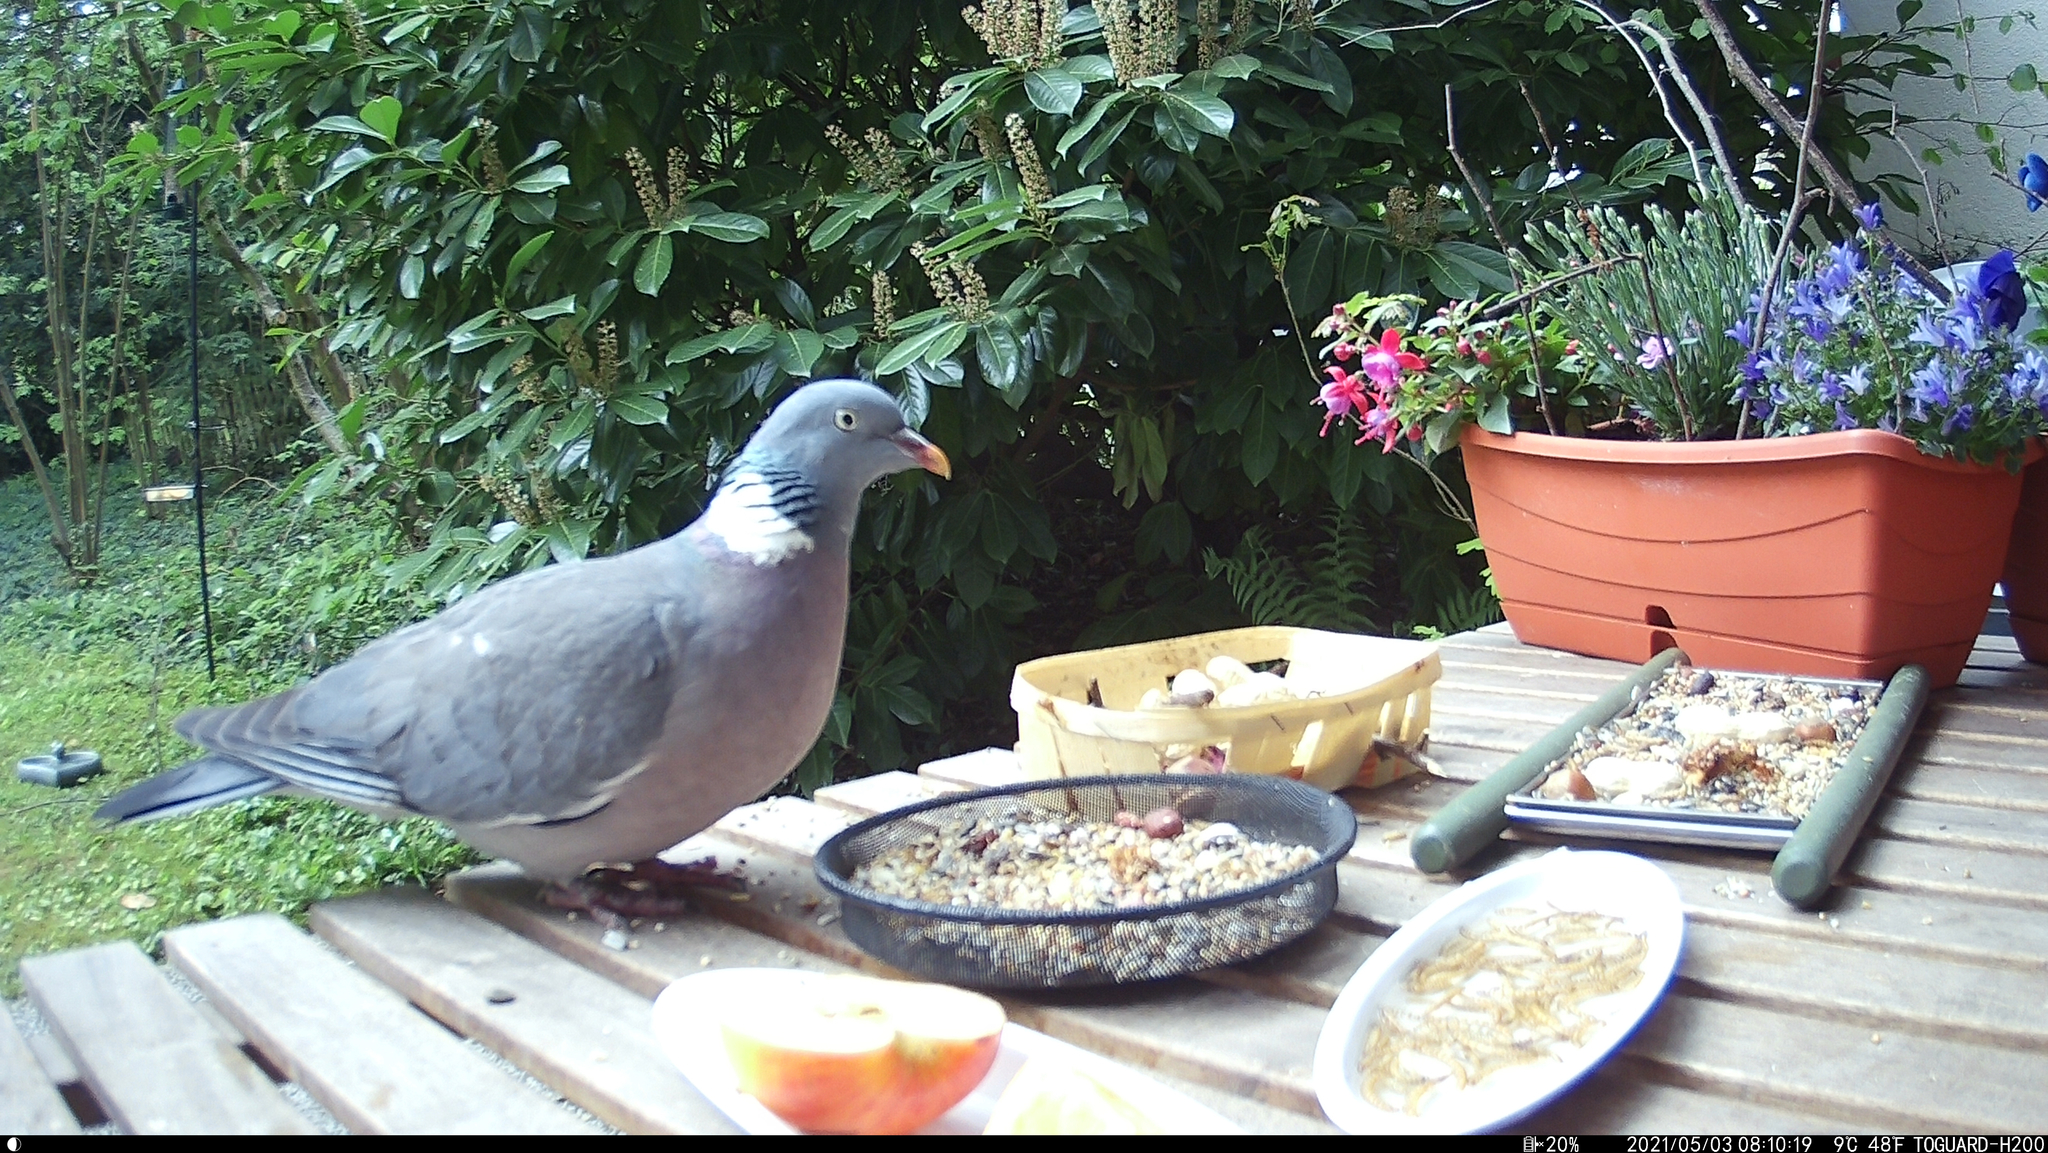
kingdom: Animalia
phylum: Chordata
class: Aves
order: Columbiformes
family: Columbidae
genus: Columba
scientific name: Columba palumbus
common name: Common wood pigeon
